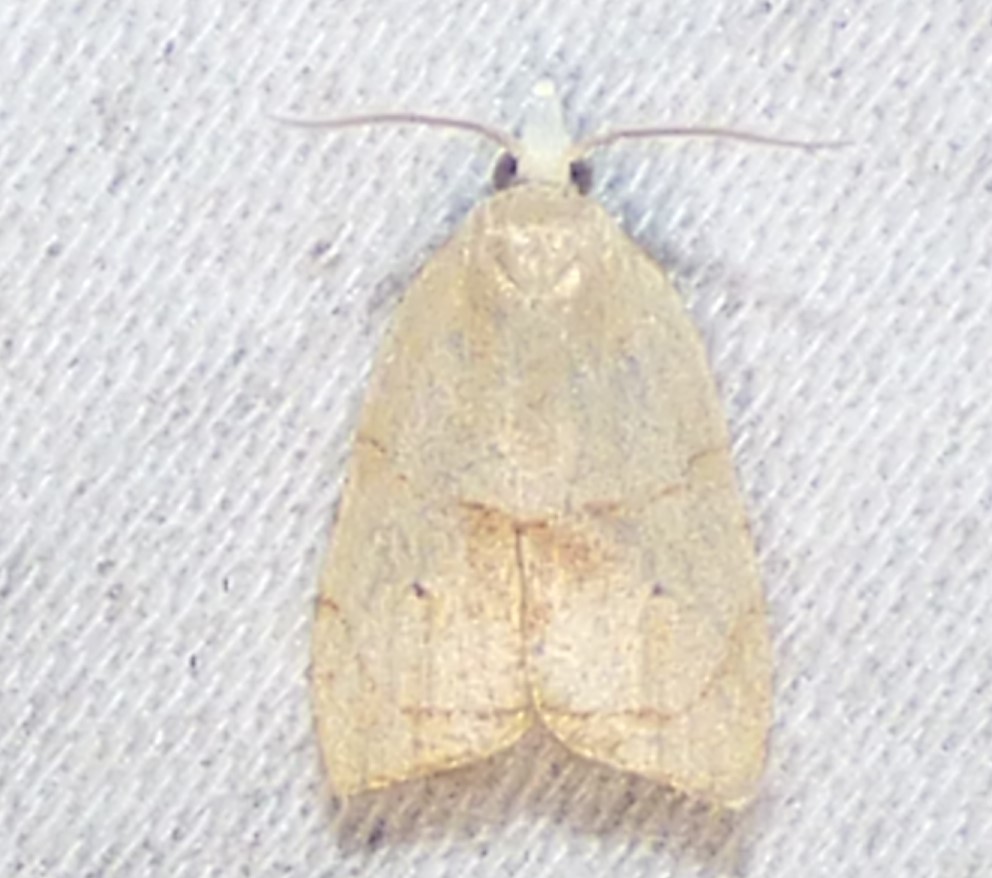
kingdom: Animalia
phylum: Arthropoda
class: Insecta
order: Lepidoptera
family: Tortricidae
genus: Coelostathma
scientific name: Coelostathma discopunctana
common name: Batman moth
